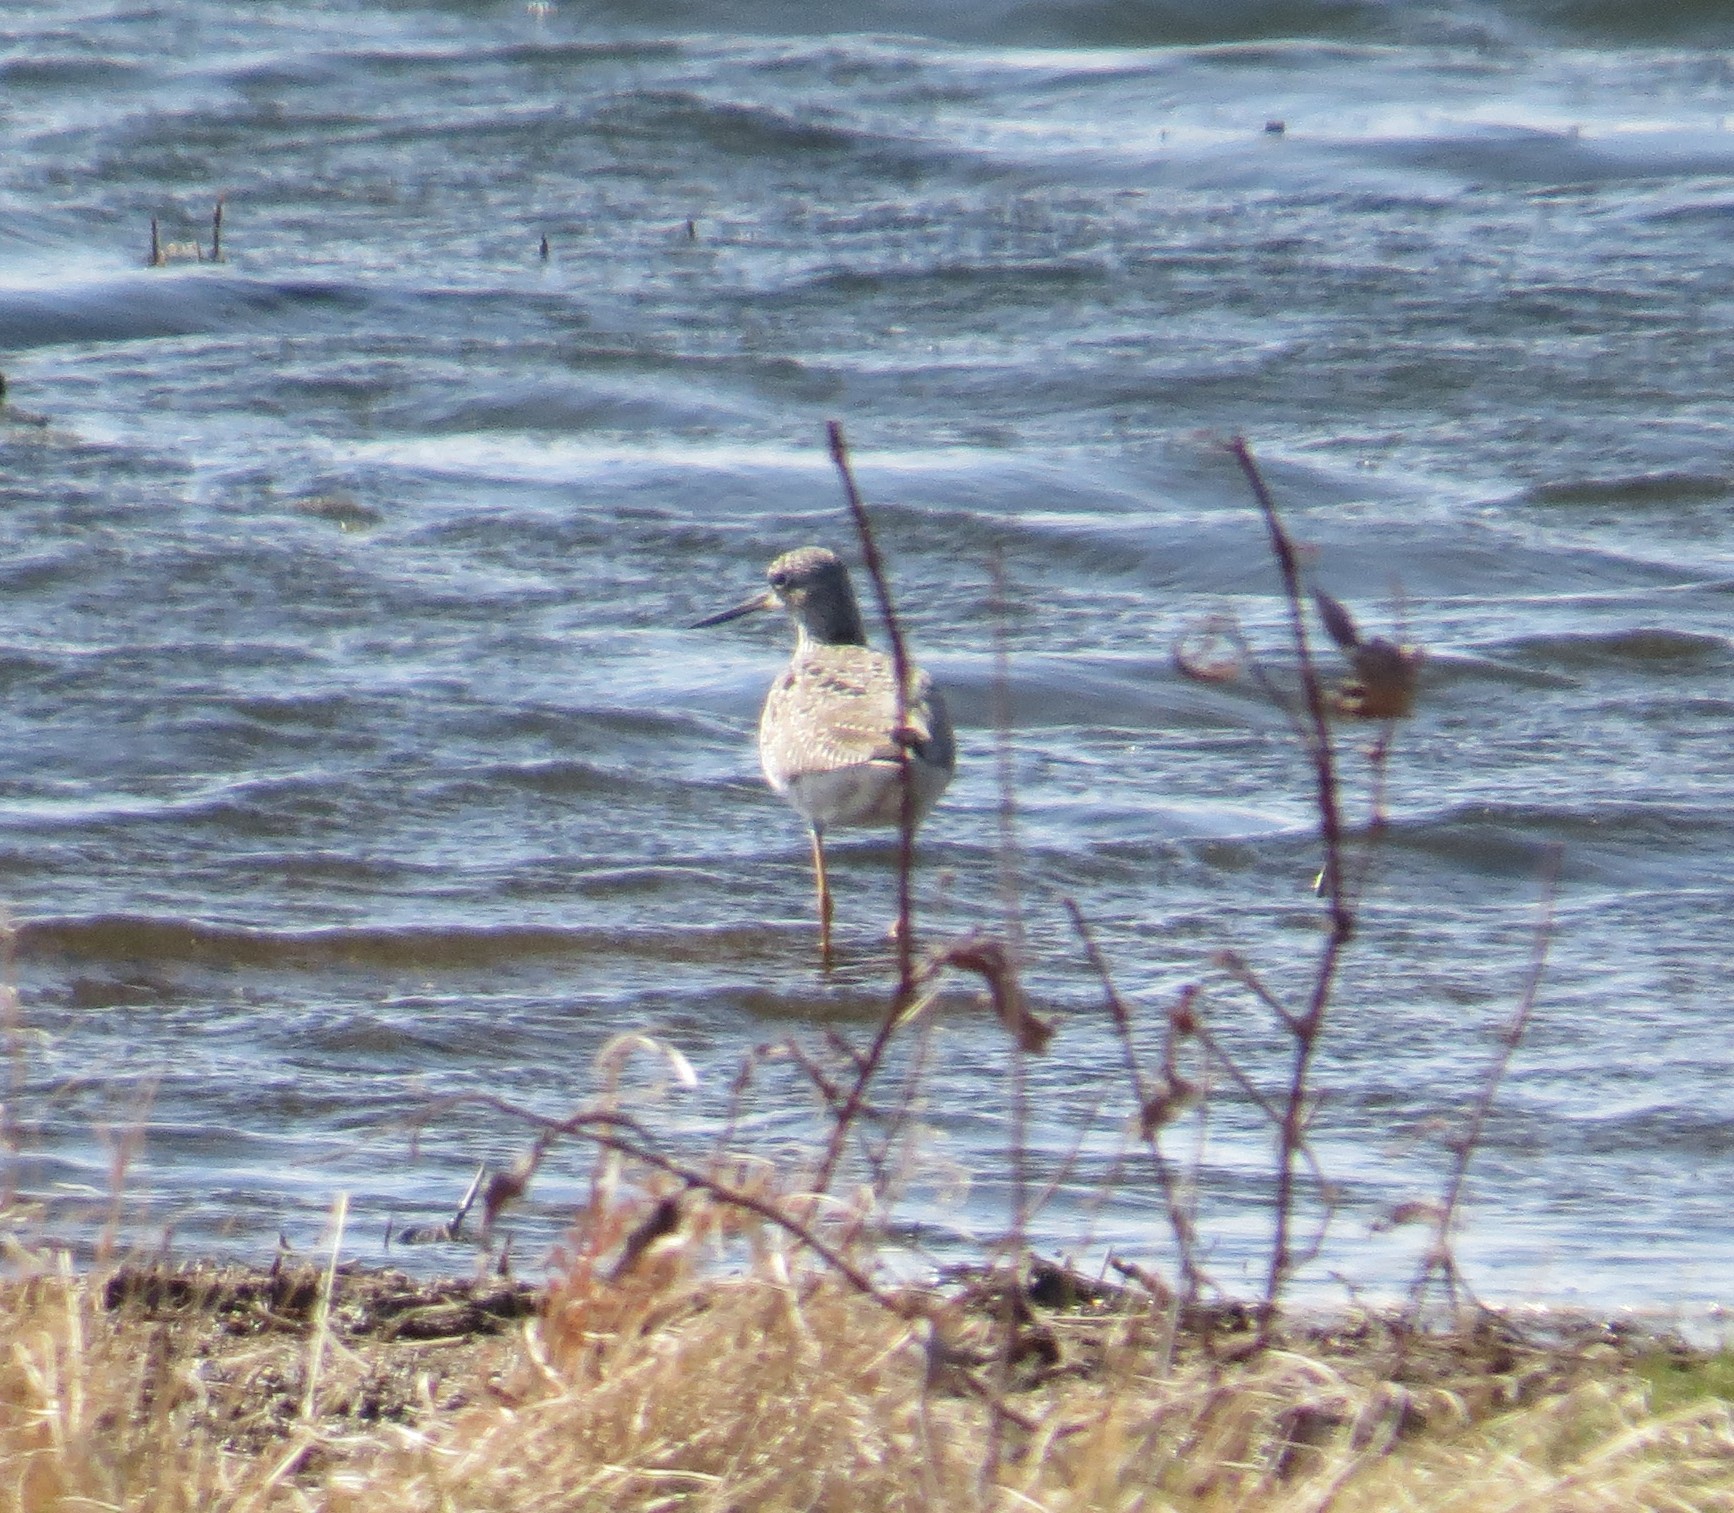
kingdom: Animalia
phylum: Chordata
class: Aves
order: Charadriiformes
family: Scolopacidae
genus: Tringa
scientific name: Tringa melanoleuca
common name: Greater yellowlegs
